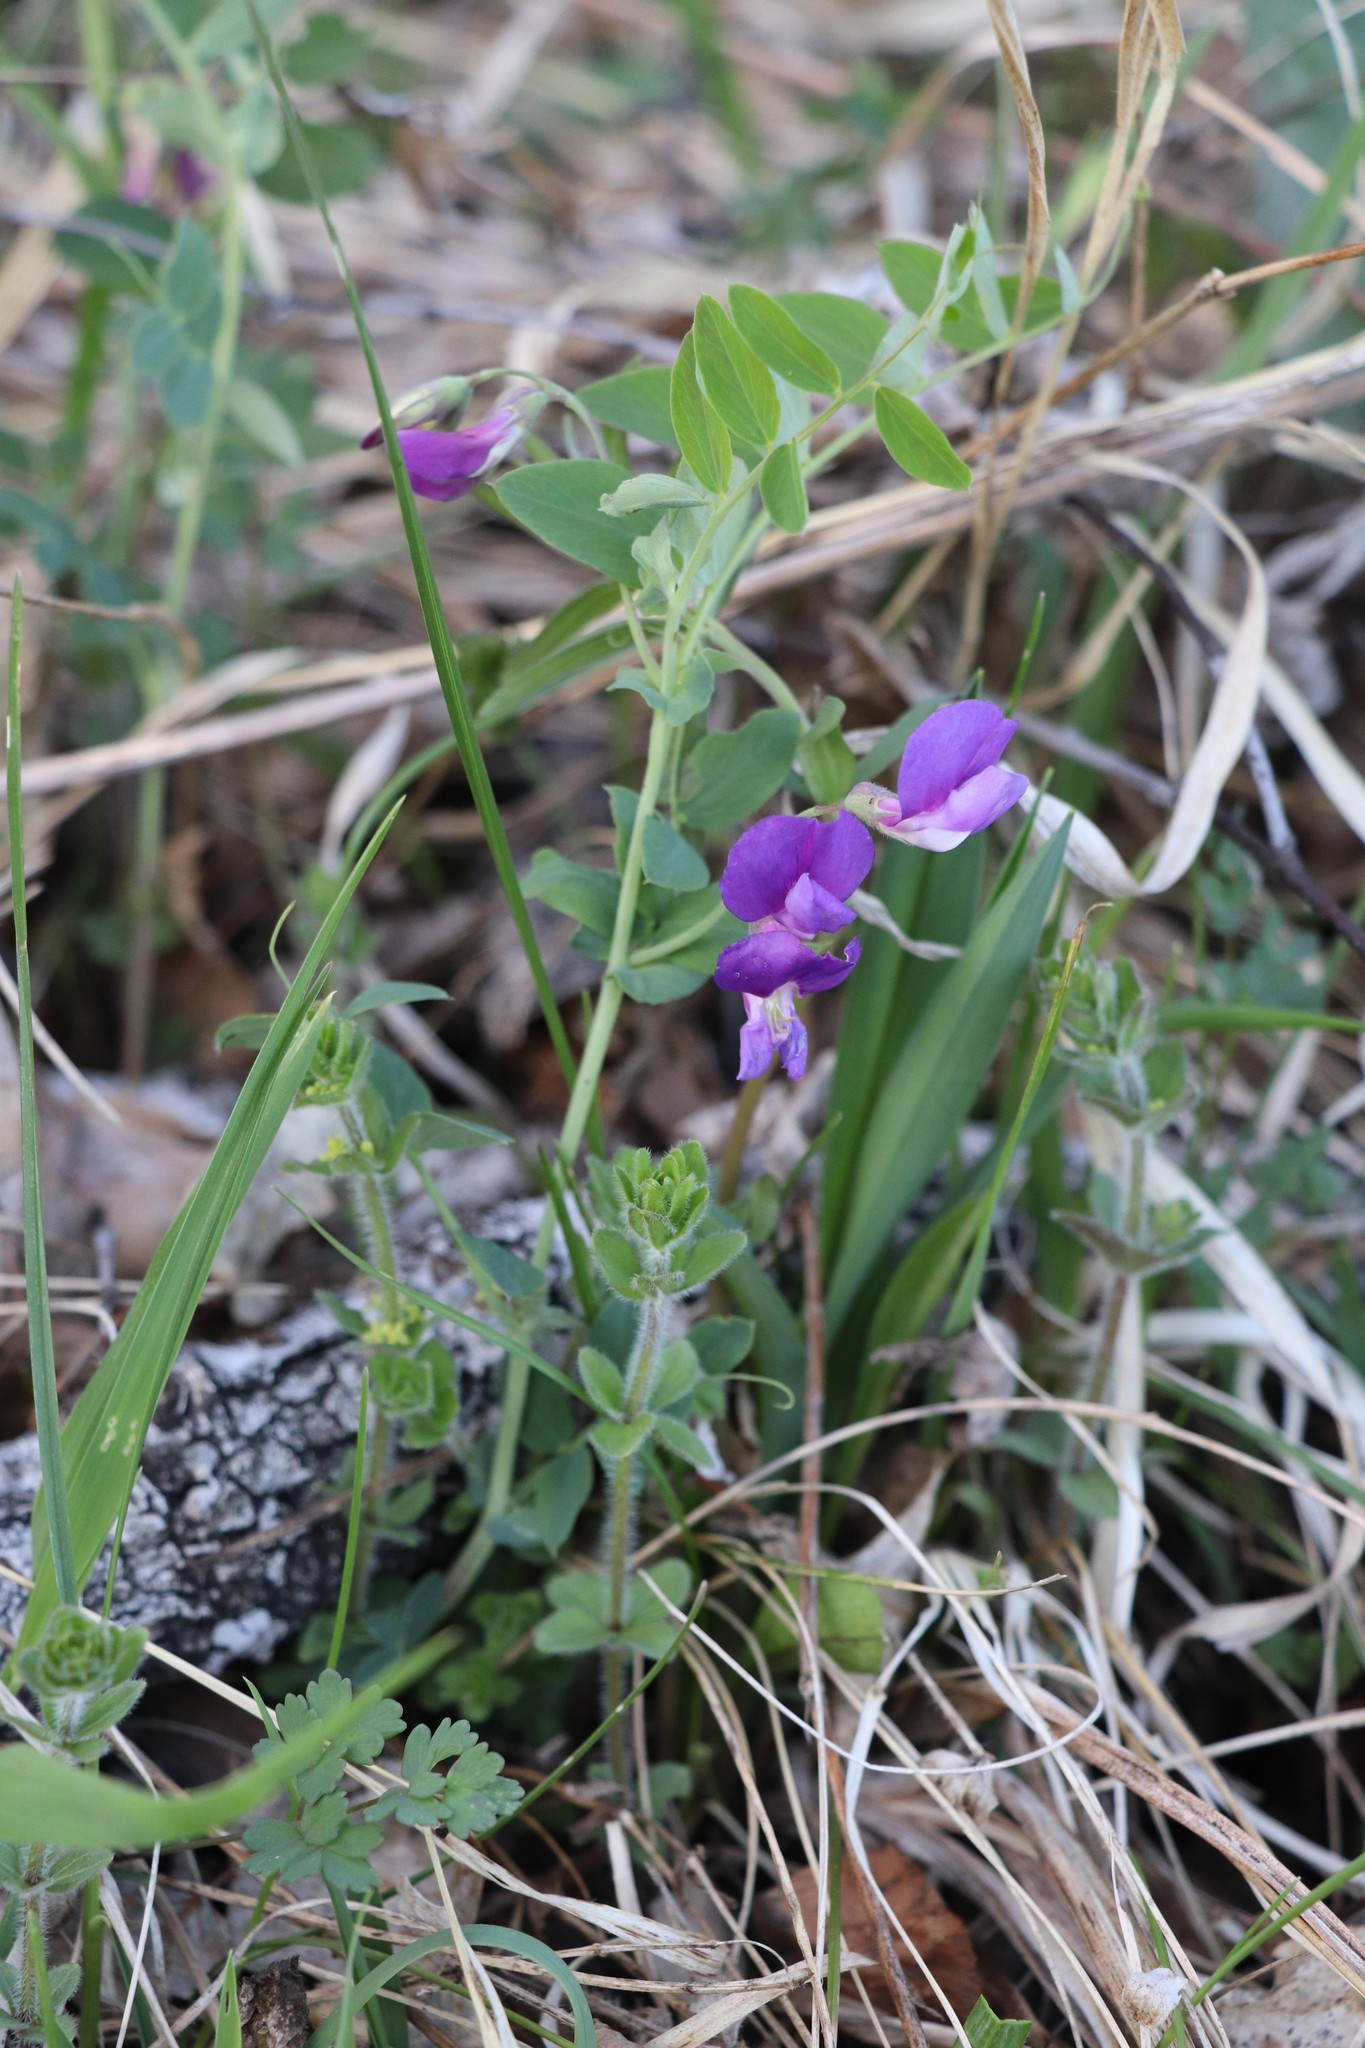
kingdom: Plantae
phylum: Tracheophyta
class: Magnoliopsida
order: Fabales
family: Fabaceae
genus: Lathyrus
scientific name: Lathyrus humilis
